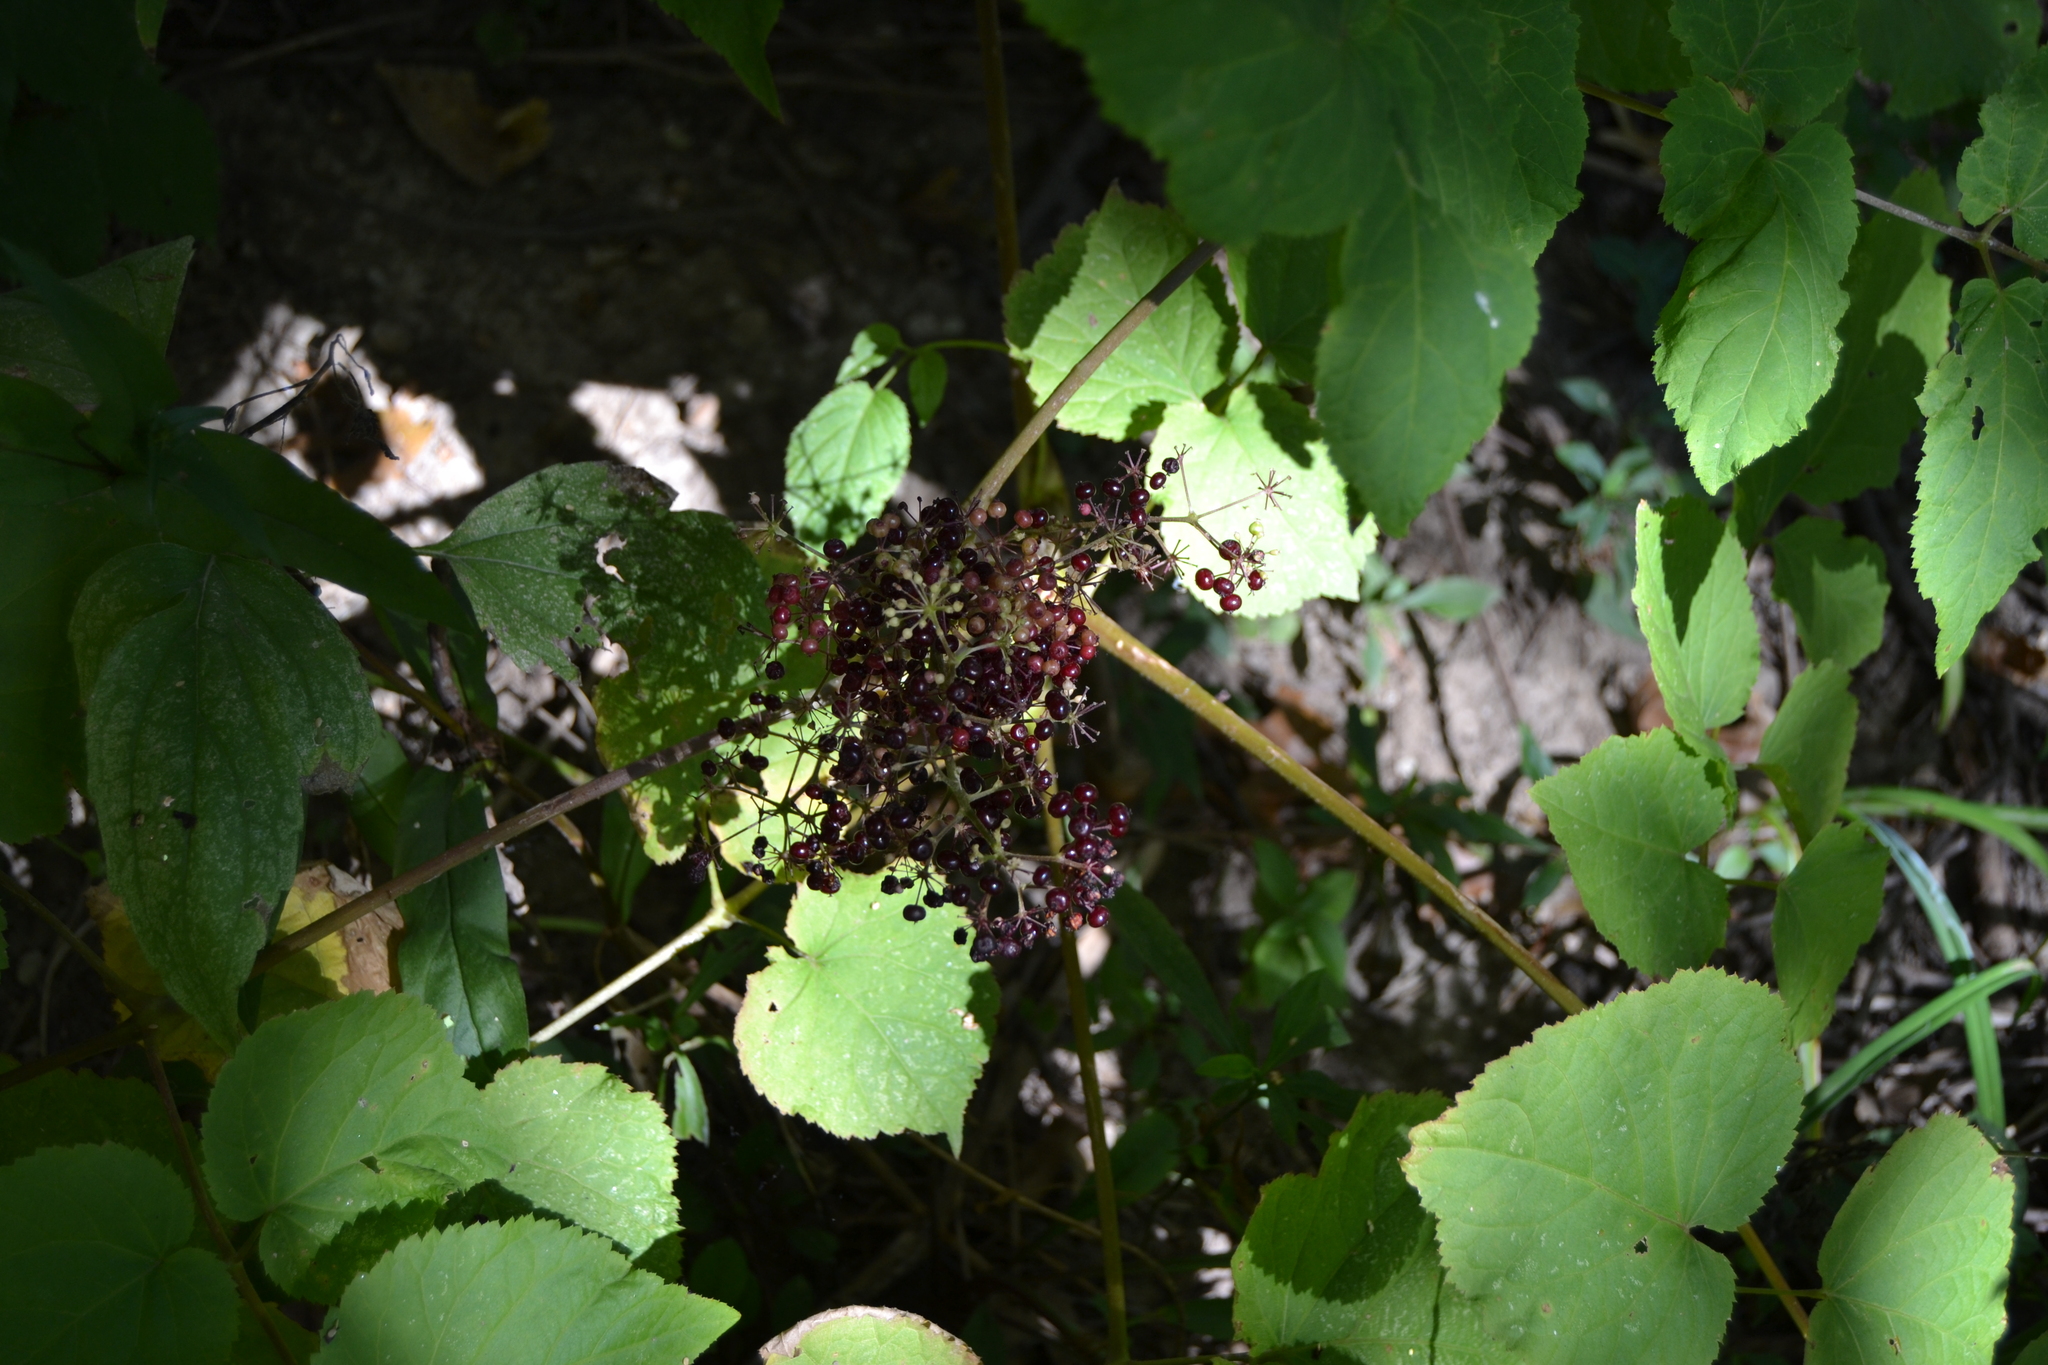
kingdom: Plantae
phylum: Tracheophyta
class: Magnoliopsida
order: Apiales
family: Araliaceae
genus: Aralia
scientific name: Aralia racemosa
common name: American-spikenard
